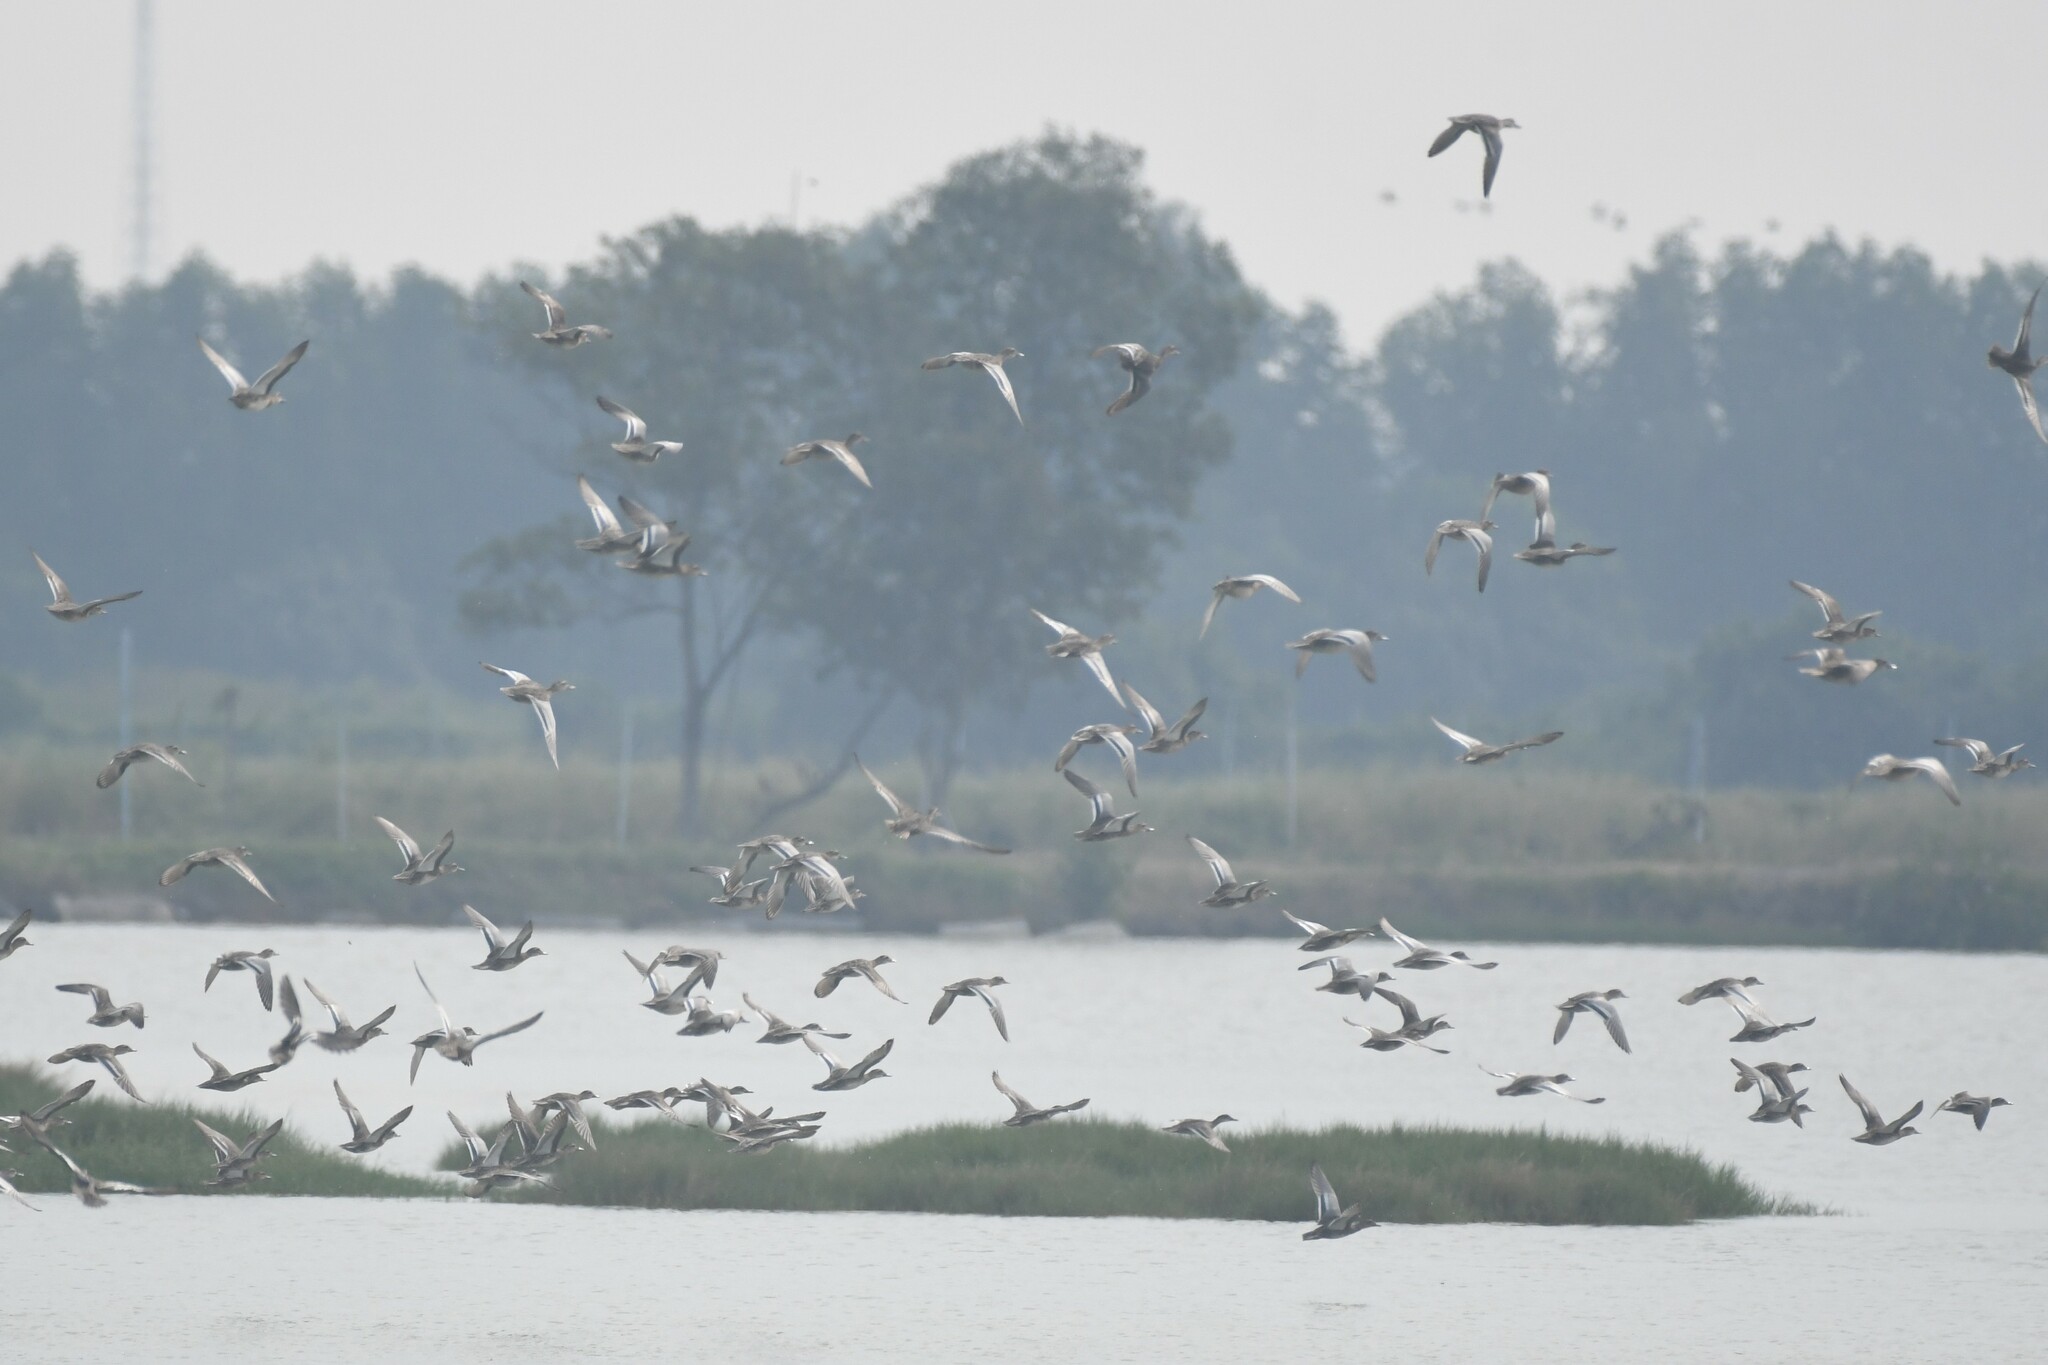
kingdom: Animalia
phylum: Chordata
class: Aves
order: Anseriformes
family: Anatidae
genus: Spatula
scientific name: Spatula querquedula
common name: Garganey
